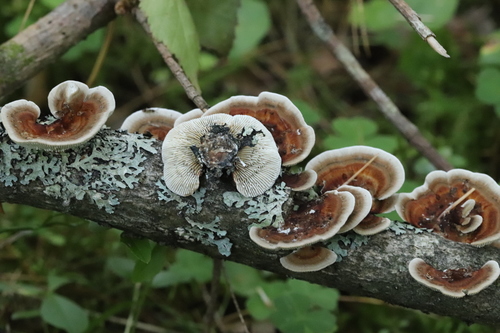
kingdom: Fungi
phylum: Basidiomycota
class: Agaricomycetes
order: Polyporales
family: Polyporaceae
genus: Daedaleopsis
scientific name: Daedaleopsis septentrionalis
